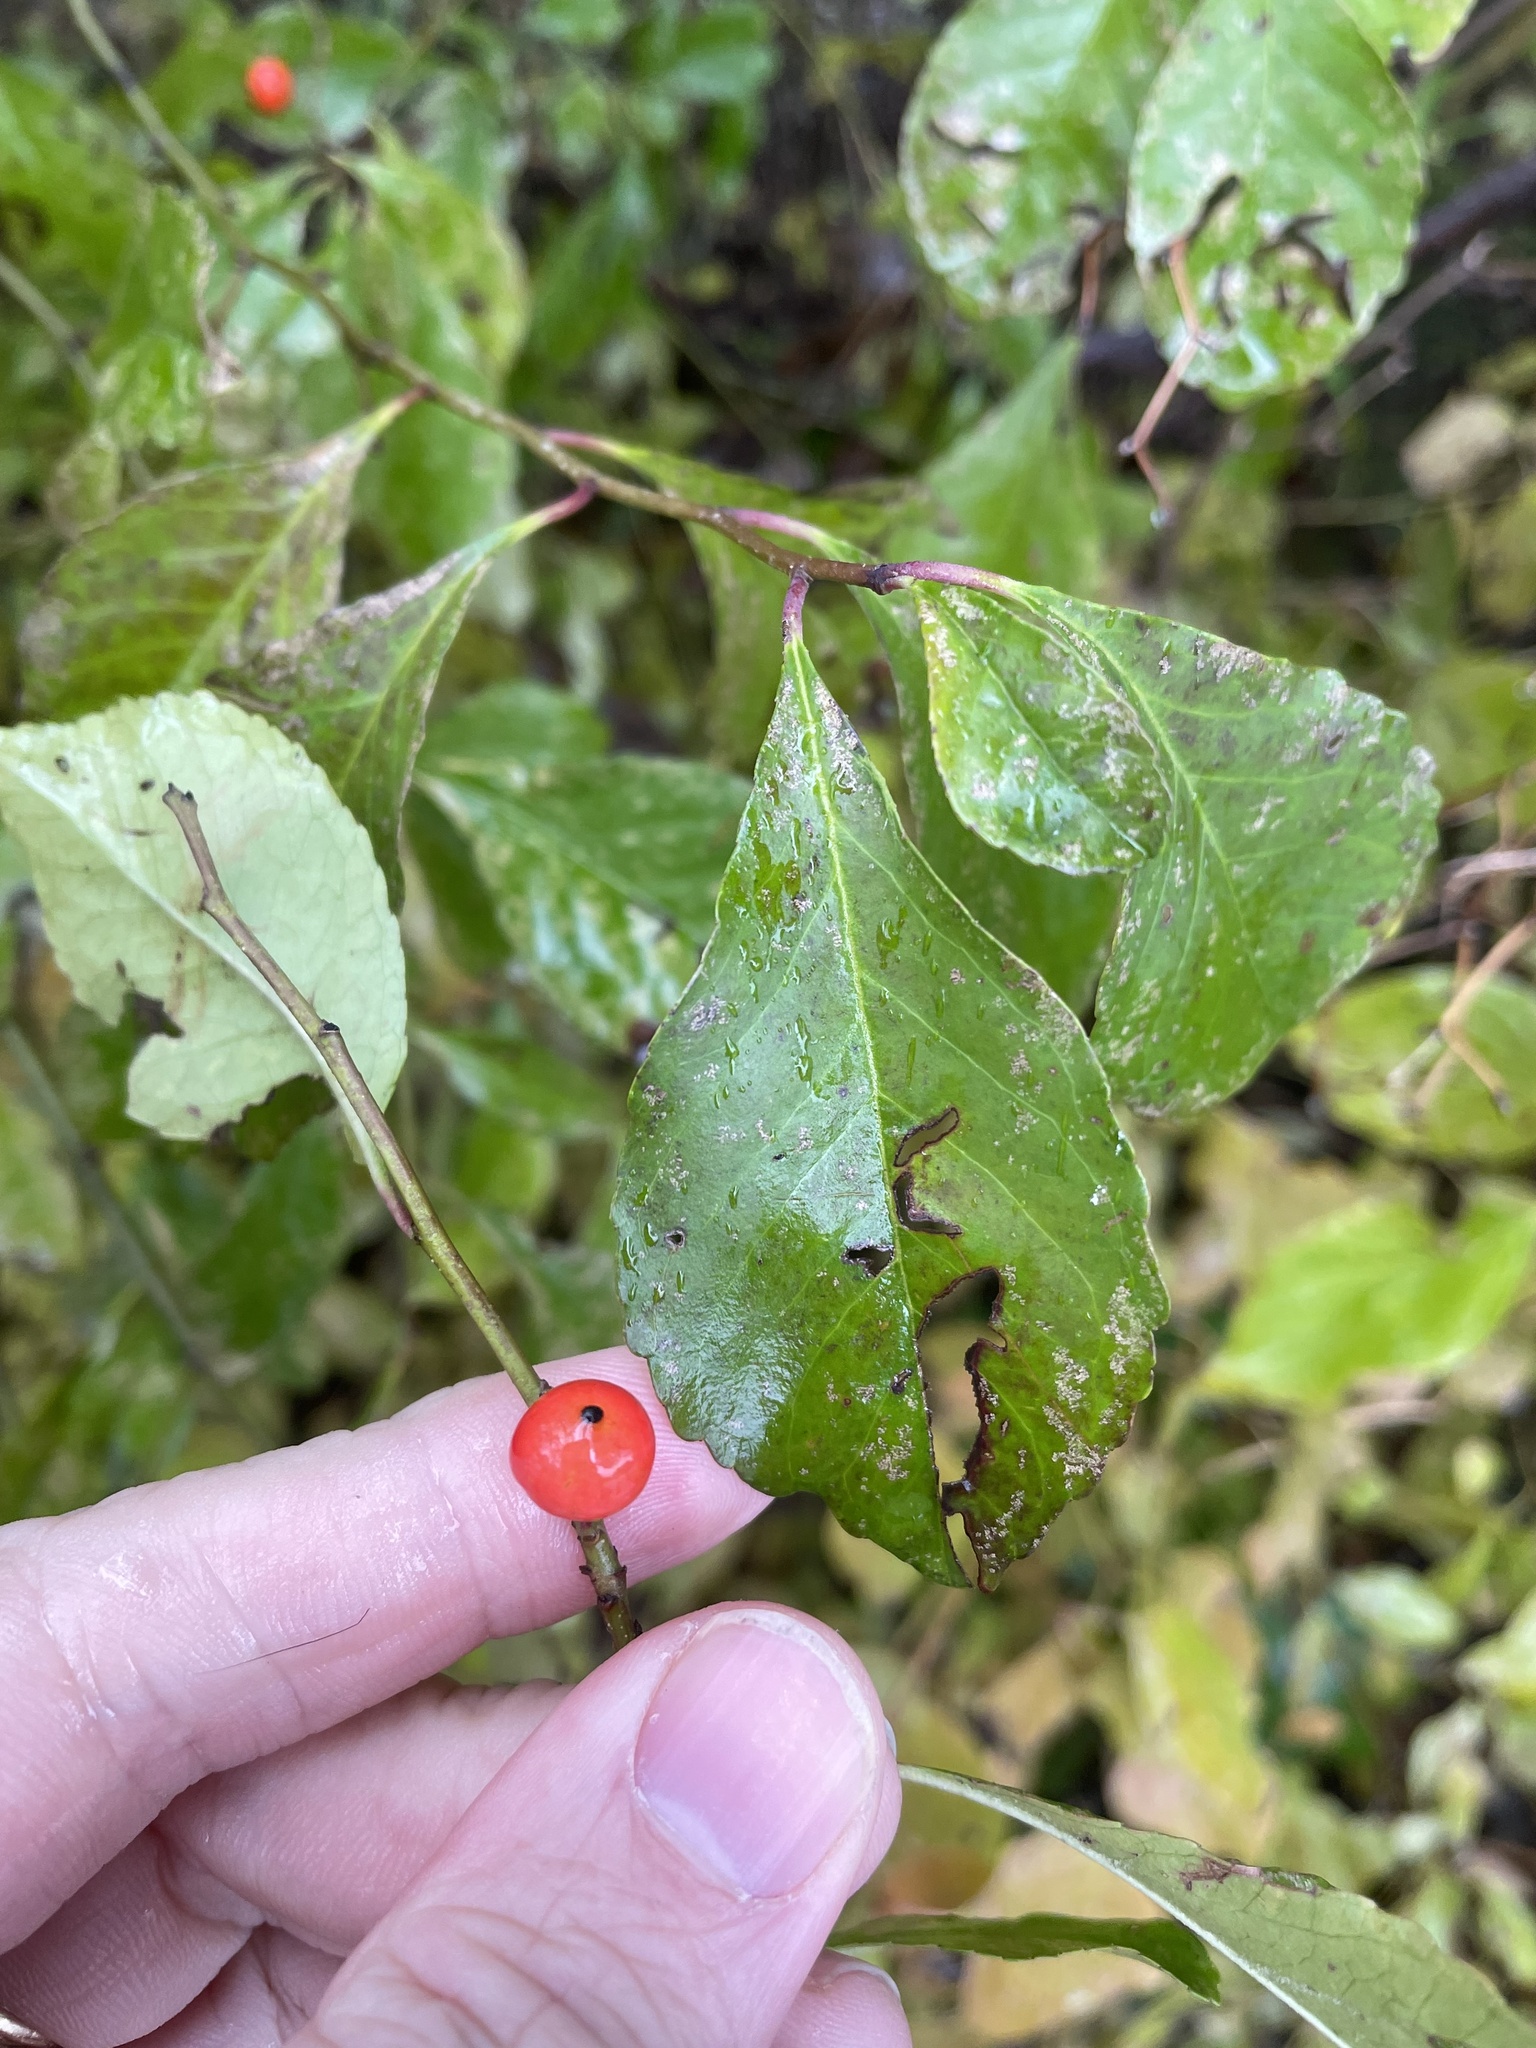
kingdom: Plantae
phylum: Tracheophyta
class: Magnoliopsida
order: Aquifoliales
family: Aquifoliaceae
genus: Ilex
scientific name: Ilex decidua
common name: Possum-haw
